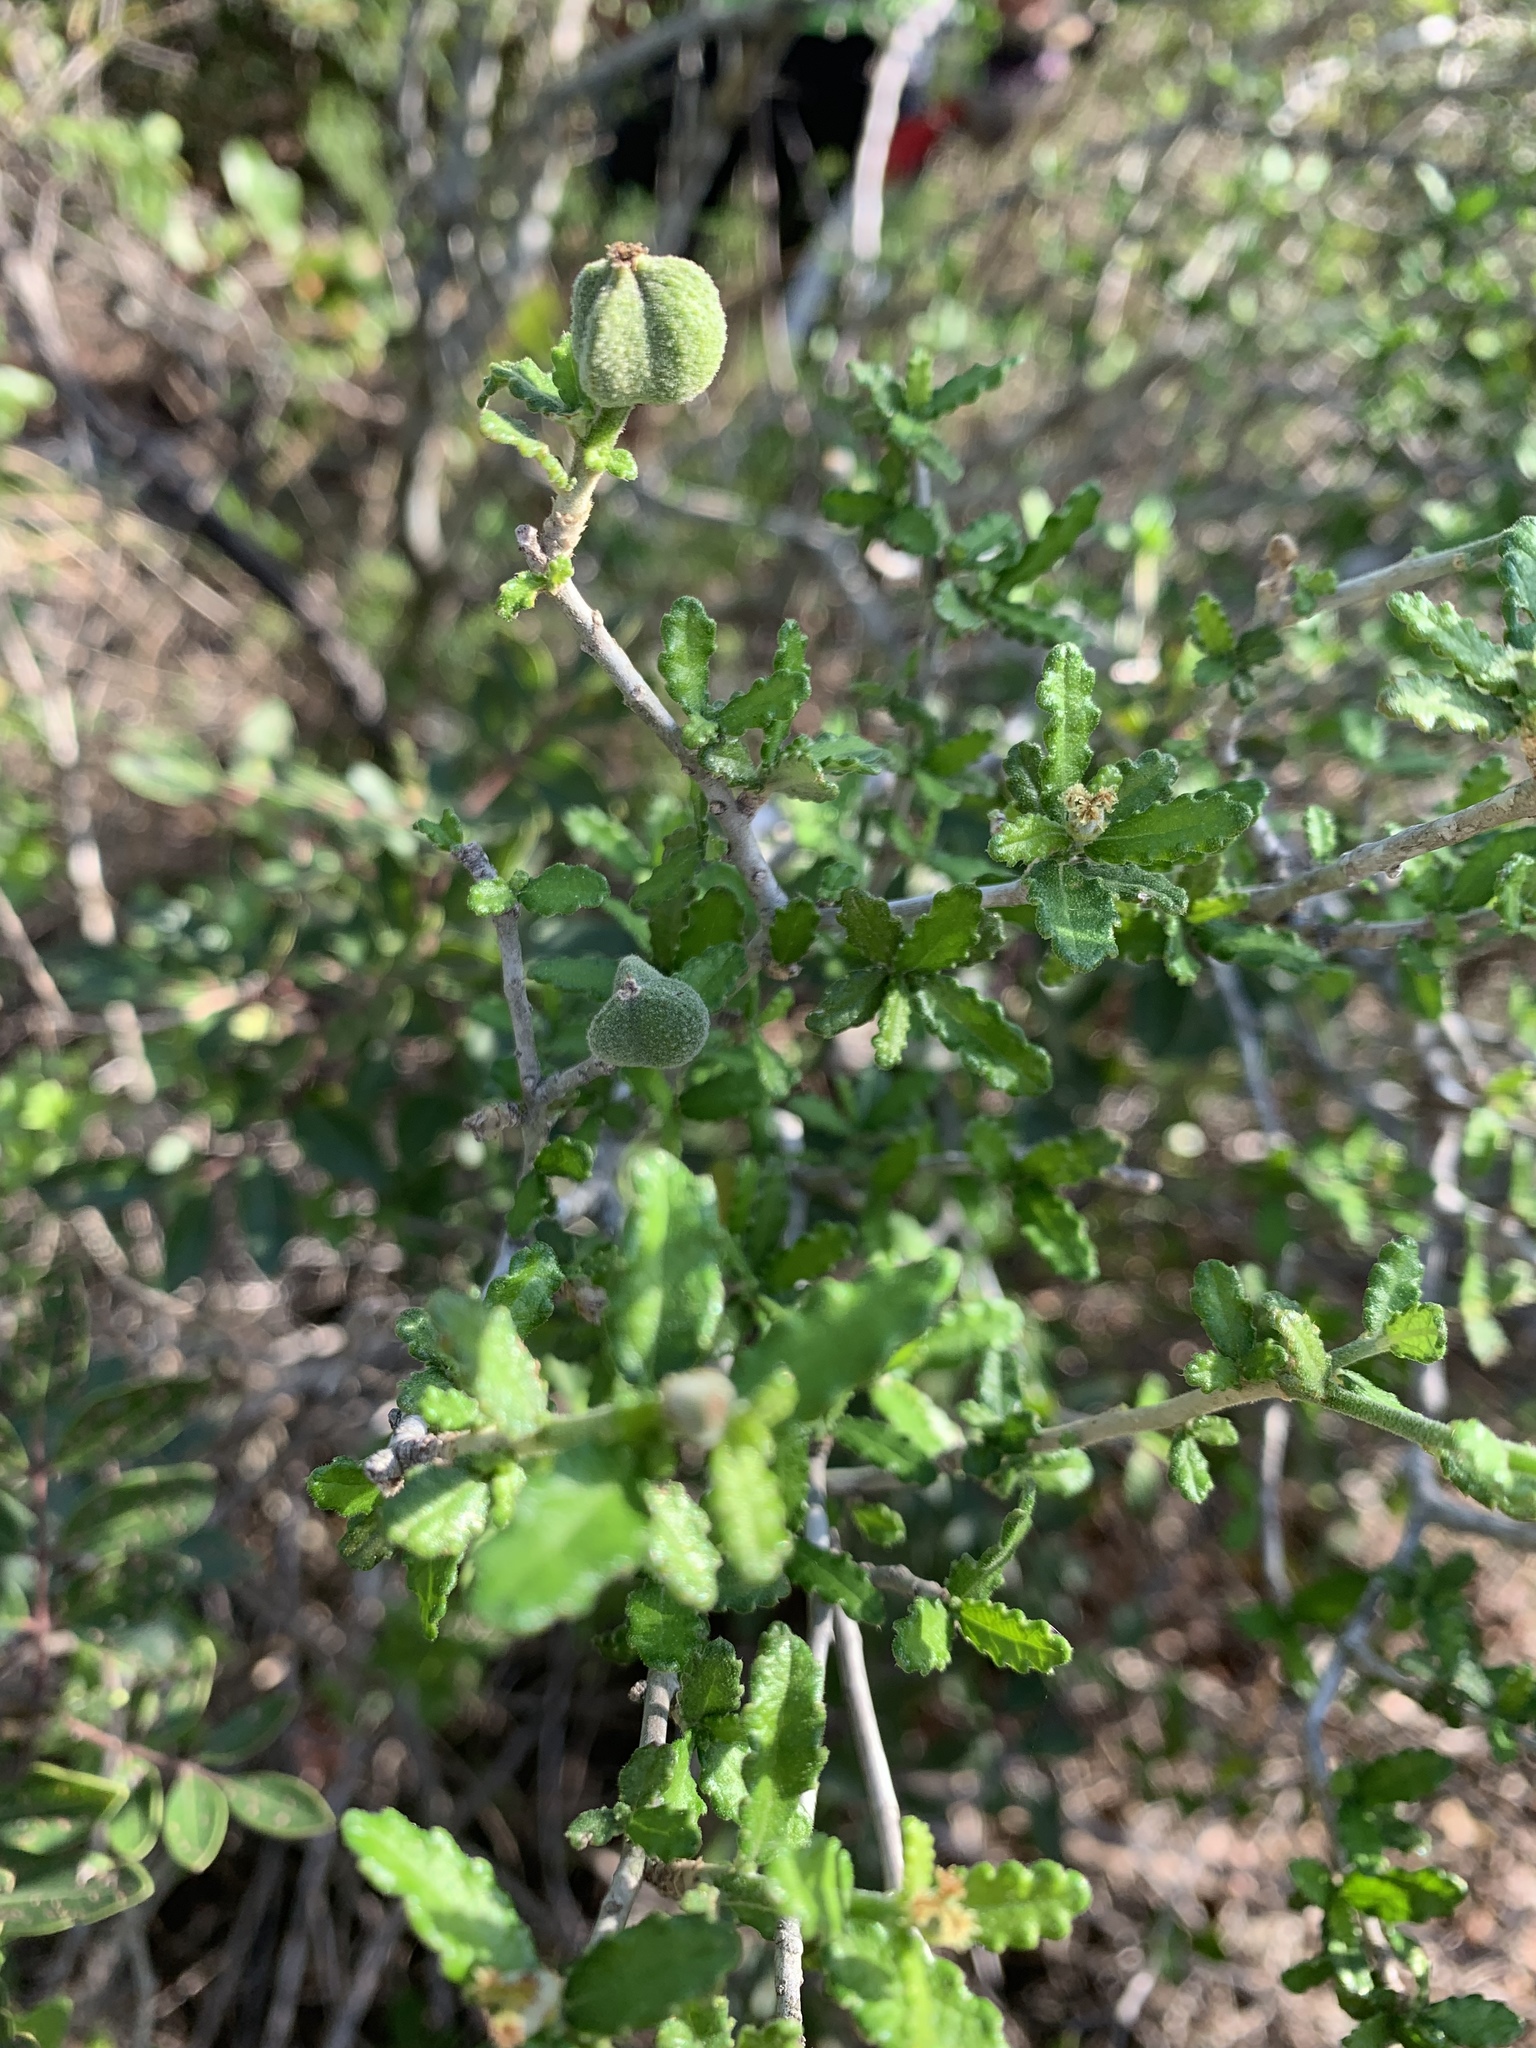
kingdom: Plantae
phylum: Tracheophyta
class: Magnoliopsida
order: Malpighiales
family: Euphorbiaceae
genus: Bernardia
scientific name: Bernardia myricifolia
